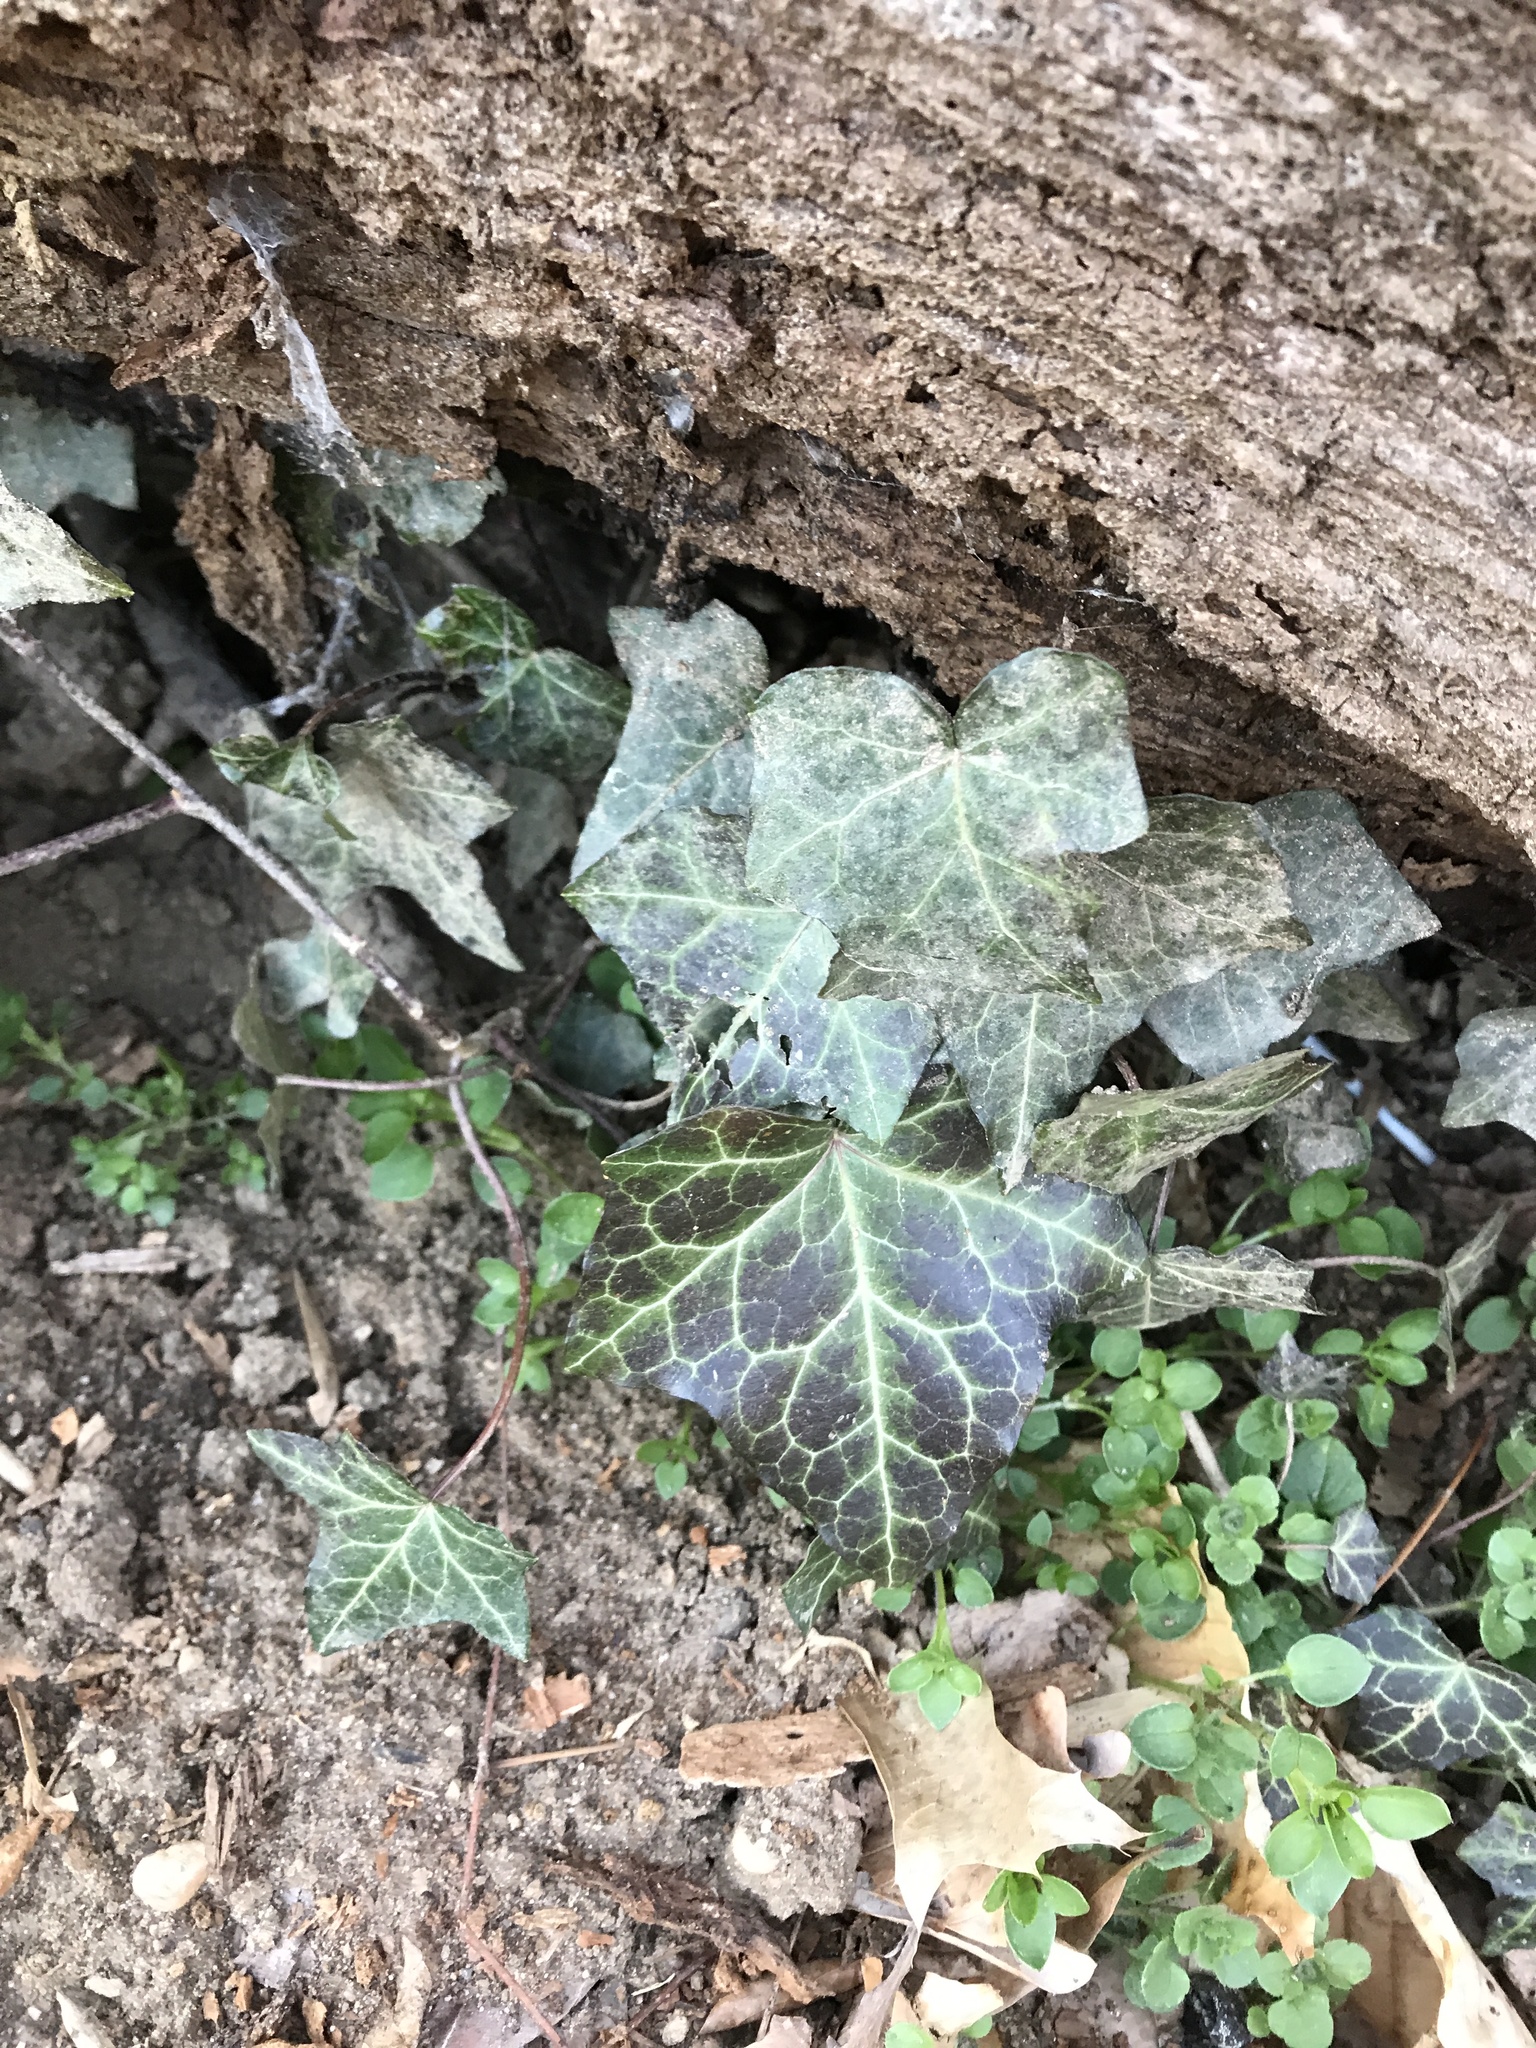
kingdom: Plantae
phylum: Tracheophyta
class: Magnoliopsida
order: Apiales
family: Araliaceae
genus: Hedera
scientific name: Hedera helix
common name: Ivy
